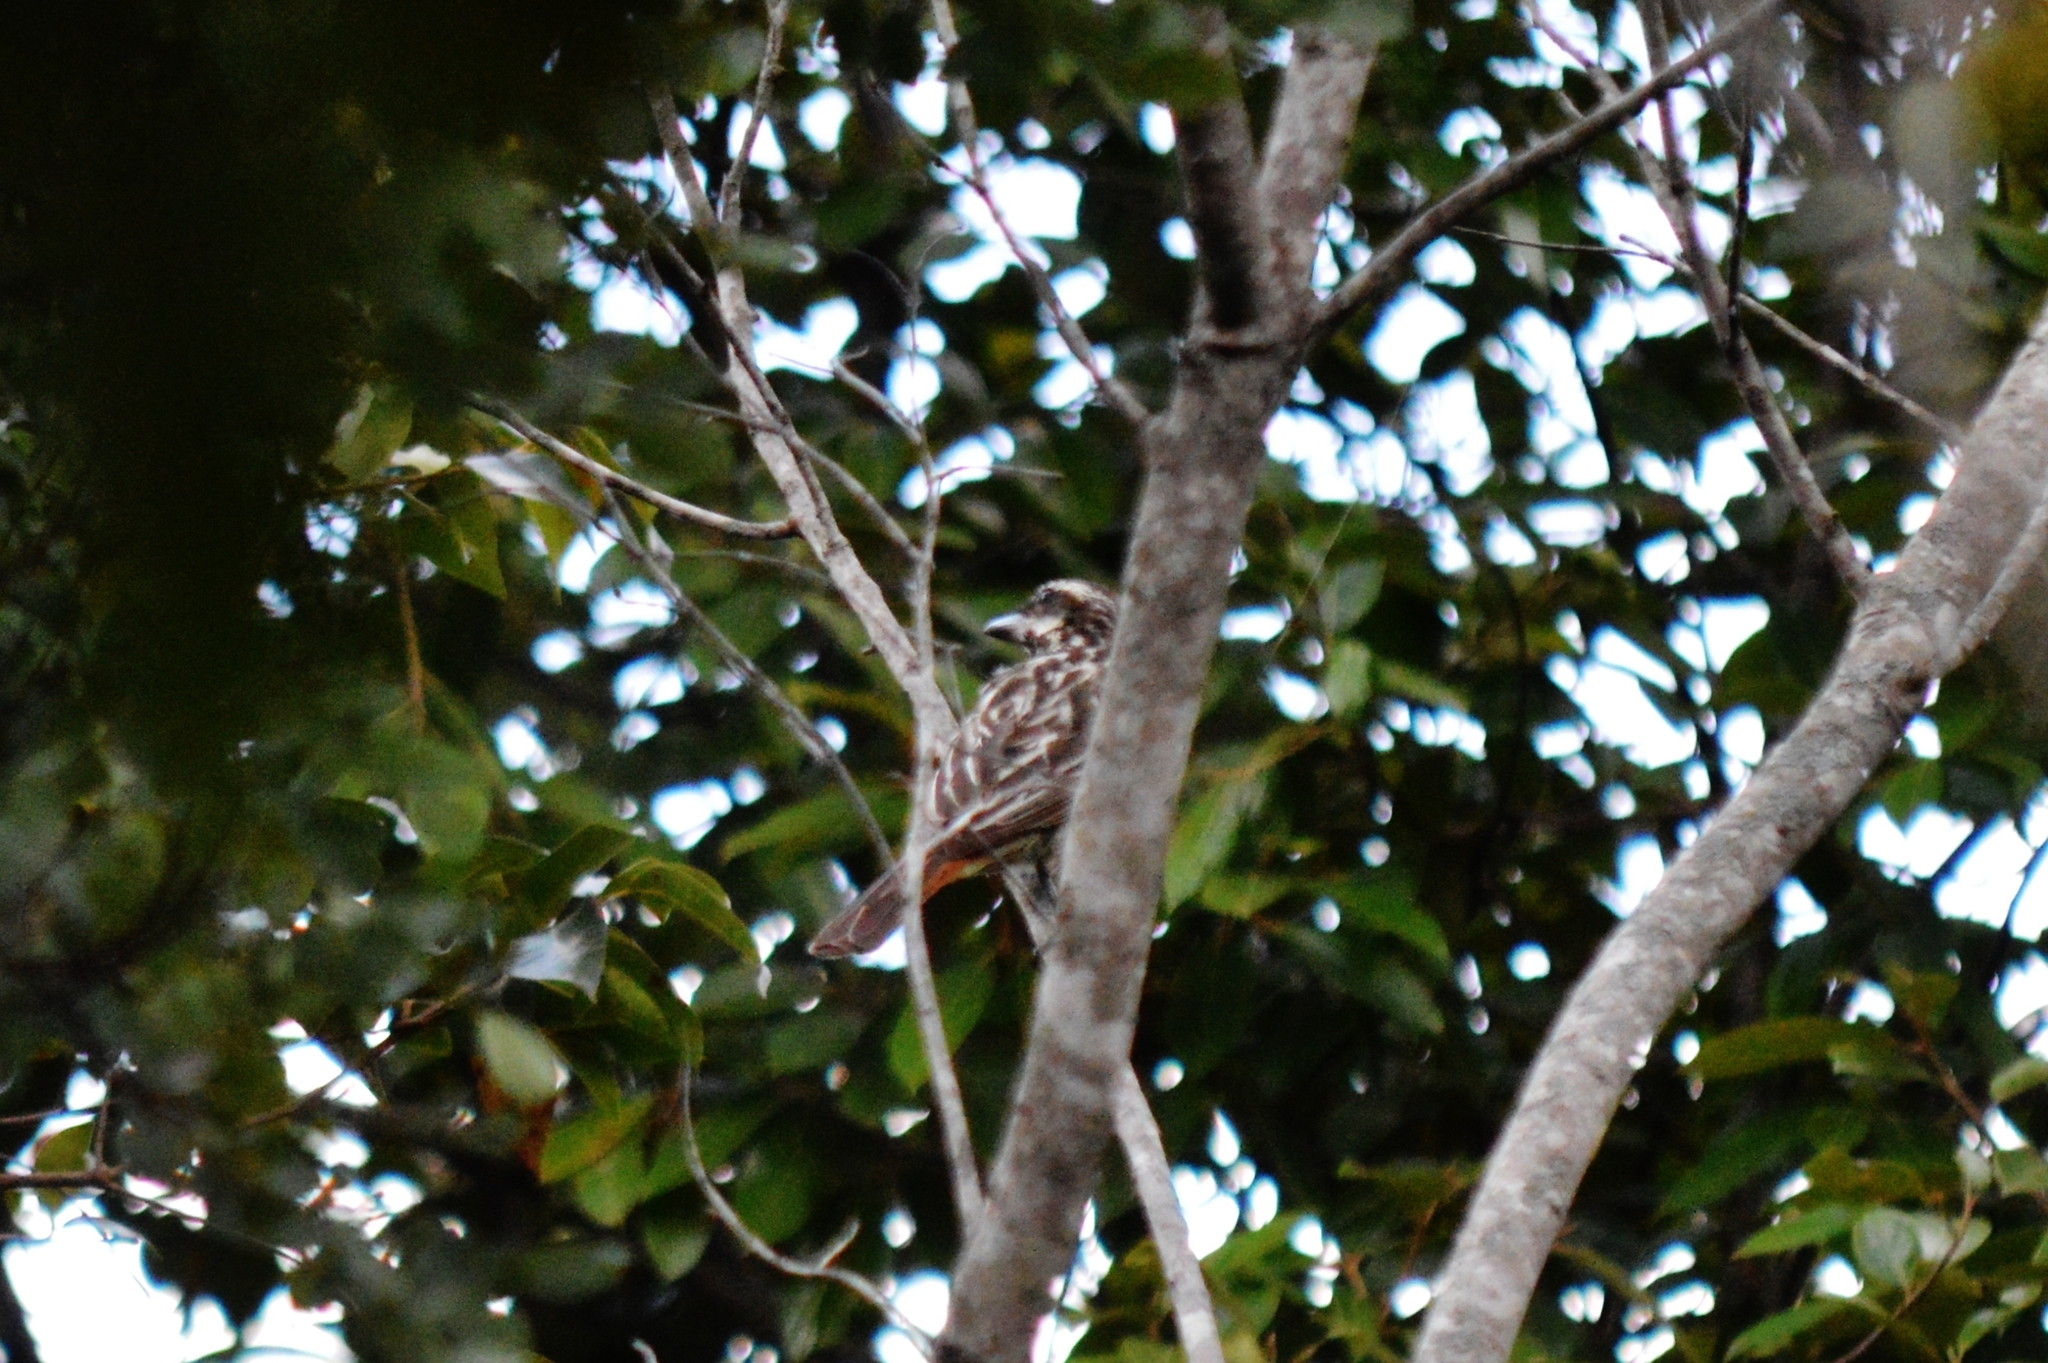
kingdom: Animalia
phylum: Chordata
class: Aves
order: Passeriformes
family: Tyrannidae
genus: Myiodynastes
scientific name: Myiodynastes maculatus
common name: Streaked flycatcher
